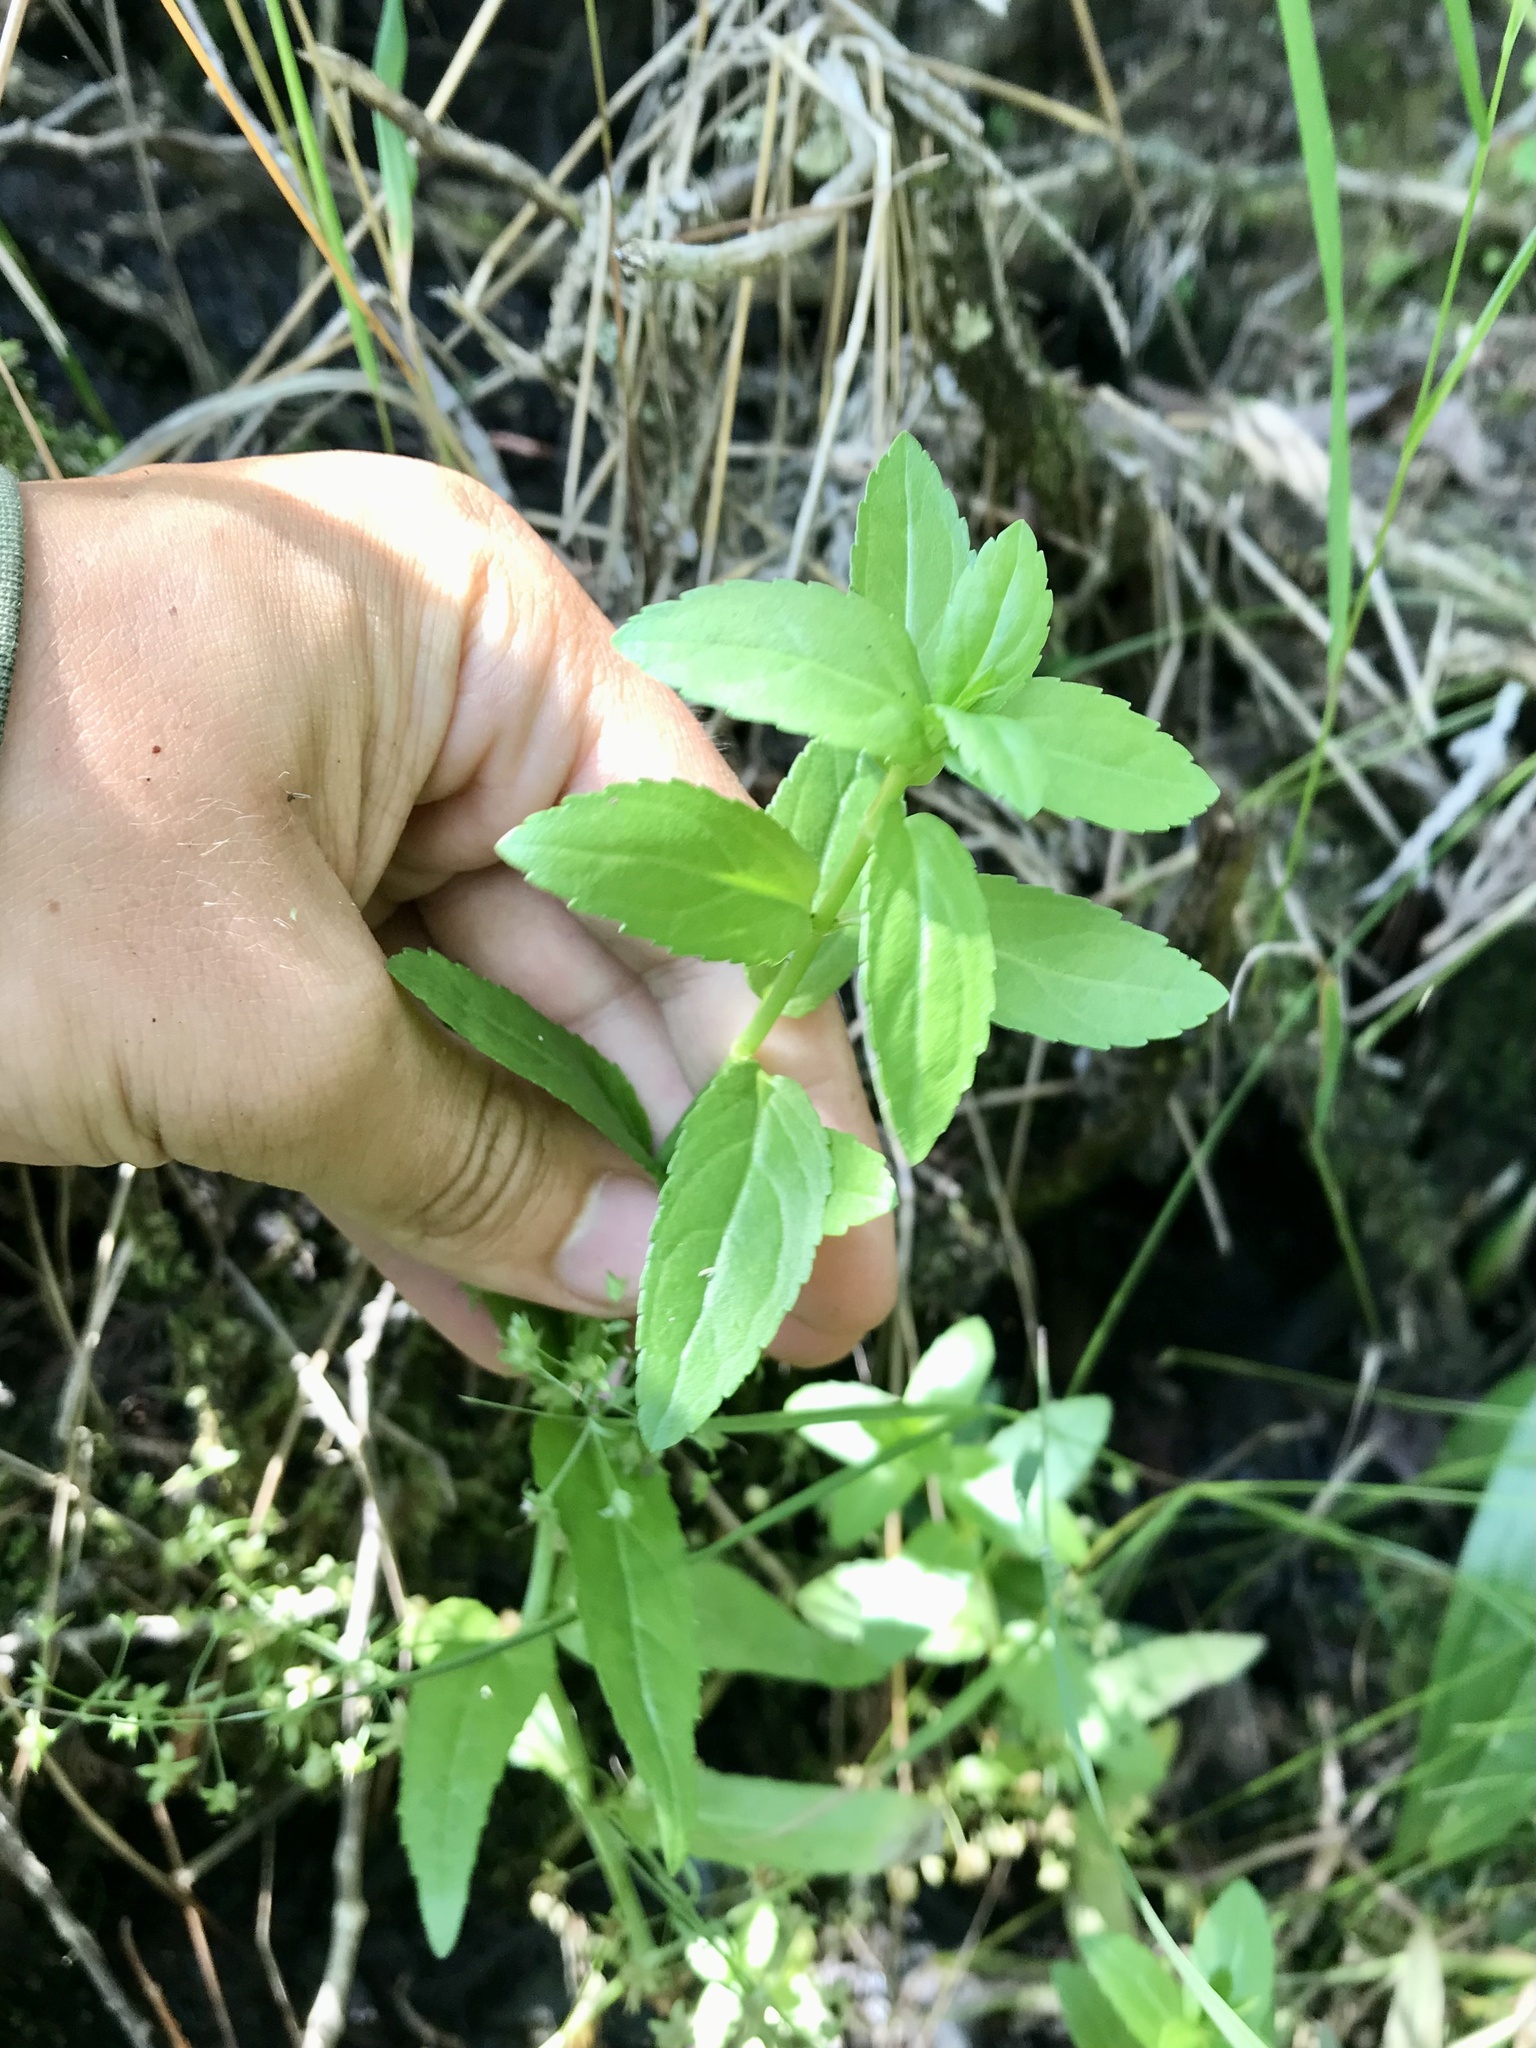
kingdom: Plantae
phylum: Tracheophyta
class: Magnoliopsida
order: Lamiales
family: Plantaginaceae
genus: Veronica
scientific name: Veronica americana
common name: American brooklime
